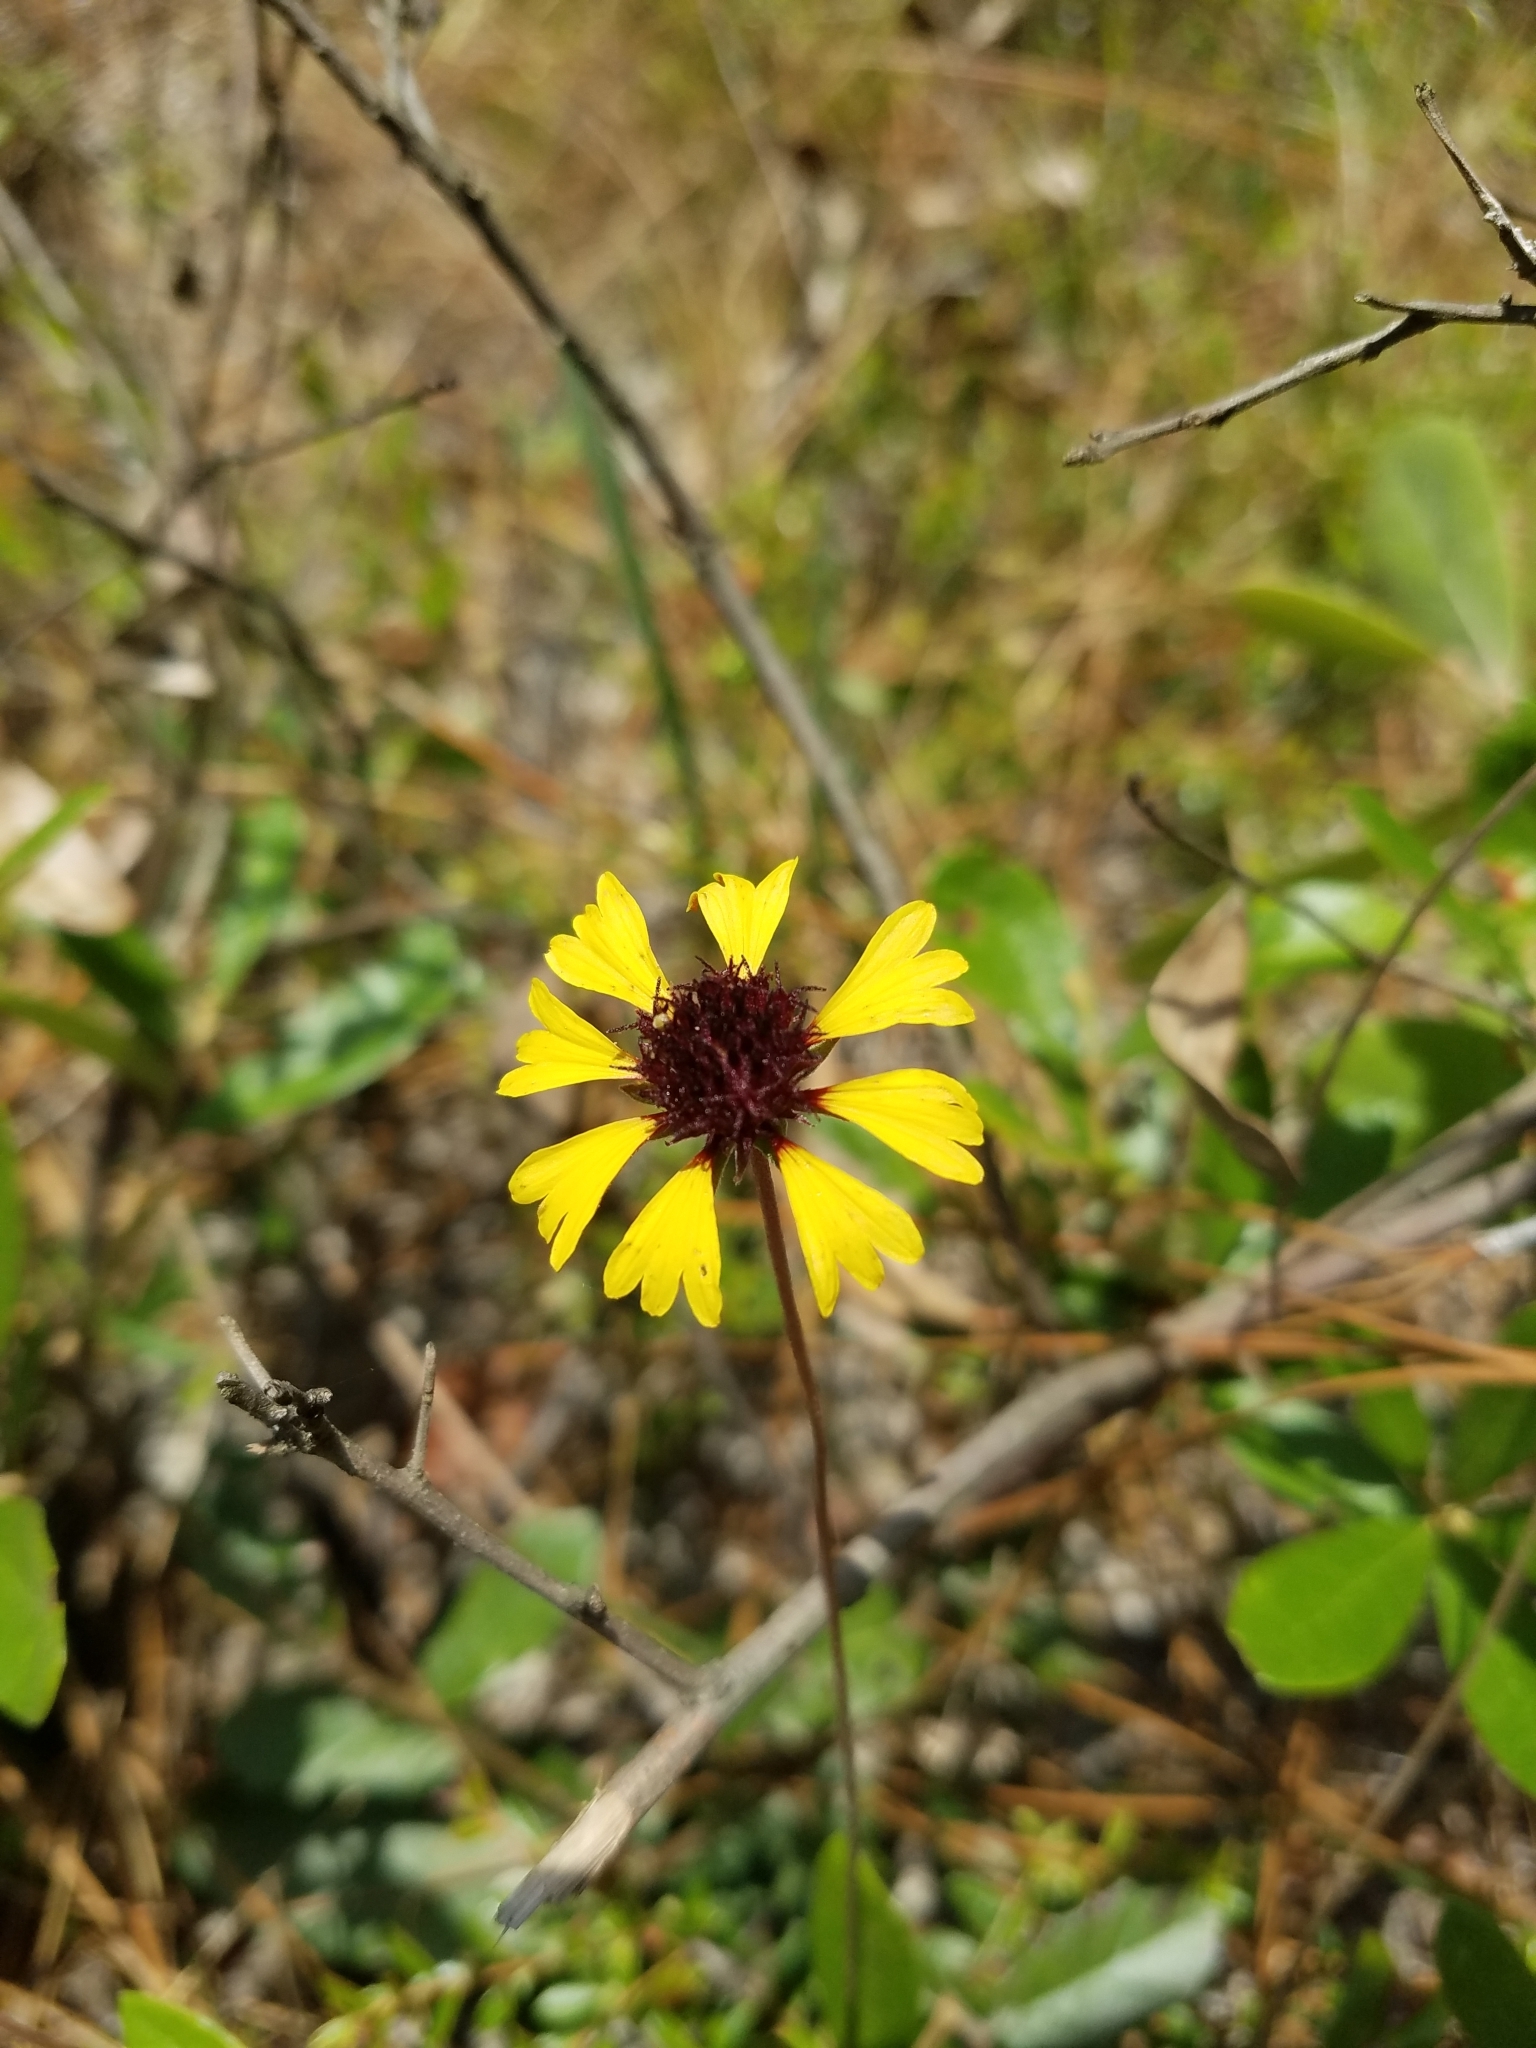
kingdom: Plantae
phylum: Tracheophyta
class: Magnoliopsida
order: Asterales
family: Asteraceae
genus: Gaillardia
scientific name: Gaillardia aestivalis
